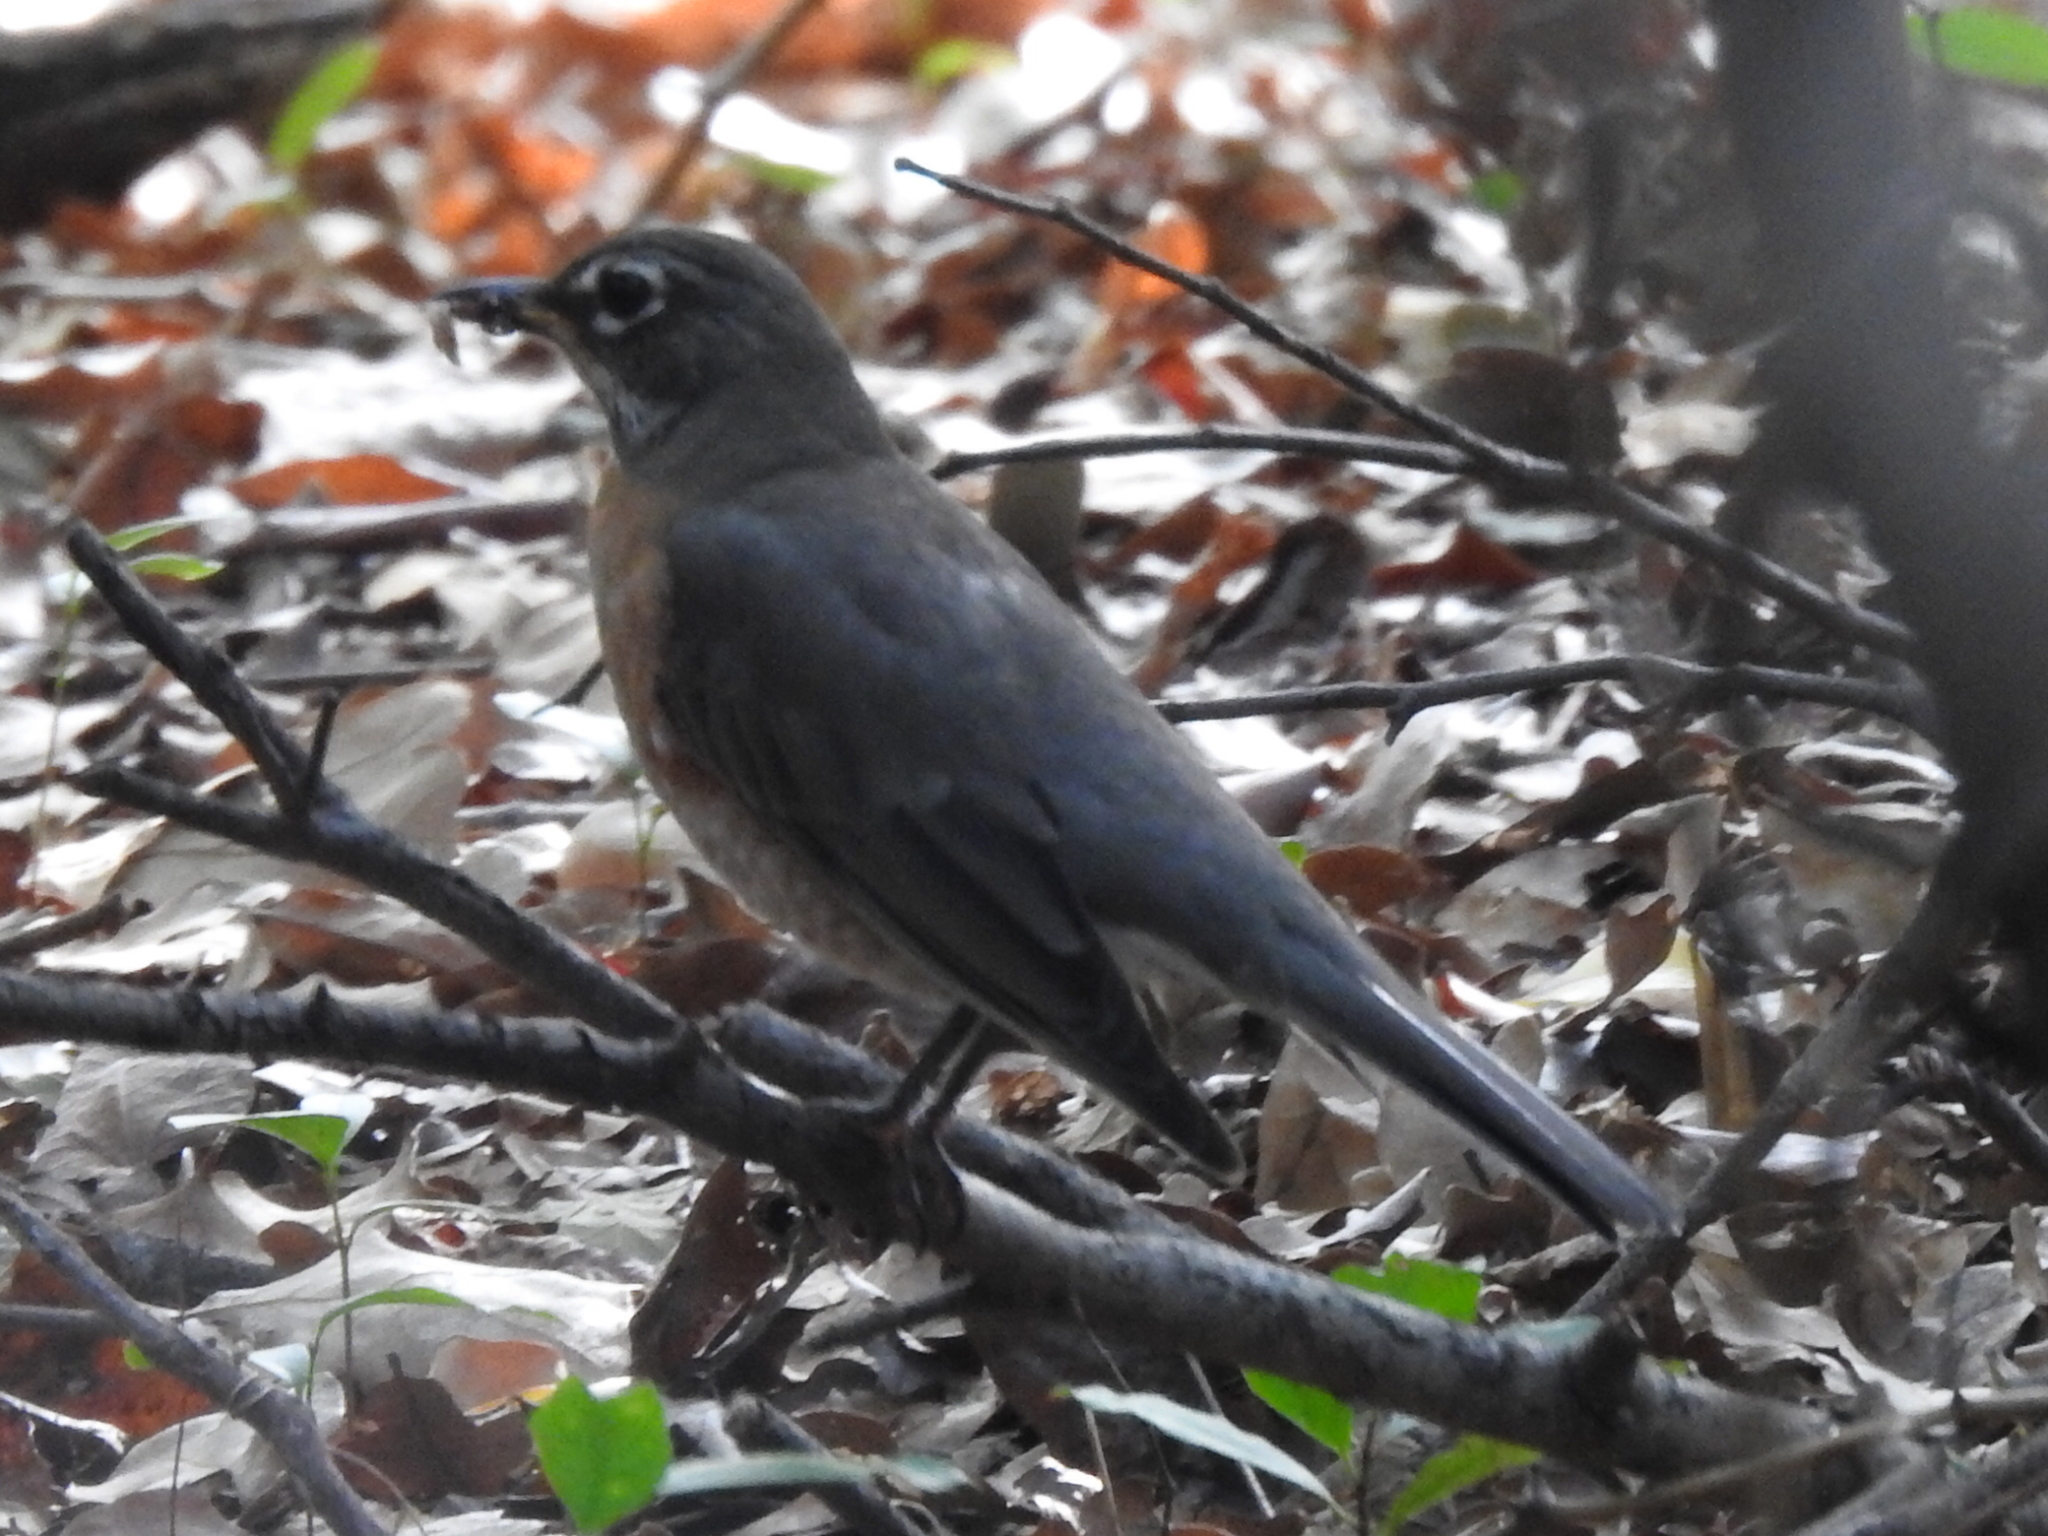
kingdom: Animalia
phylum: Chordata
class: Aves
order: Passeriformes
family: Turdidae
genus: Turdus
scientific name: Turdus migratorius
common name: American robin
